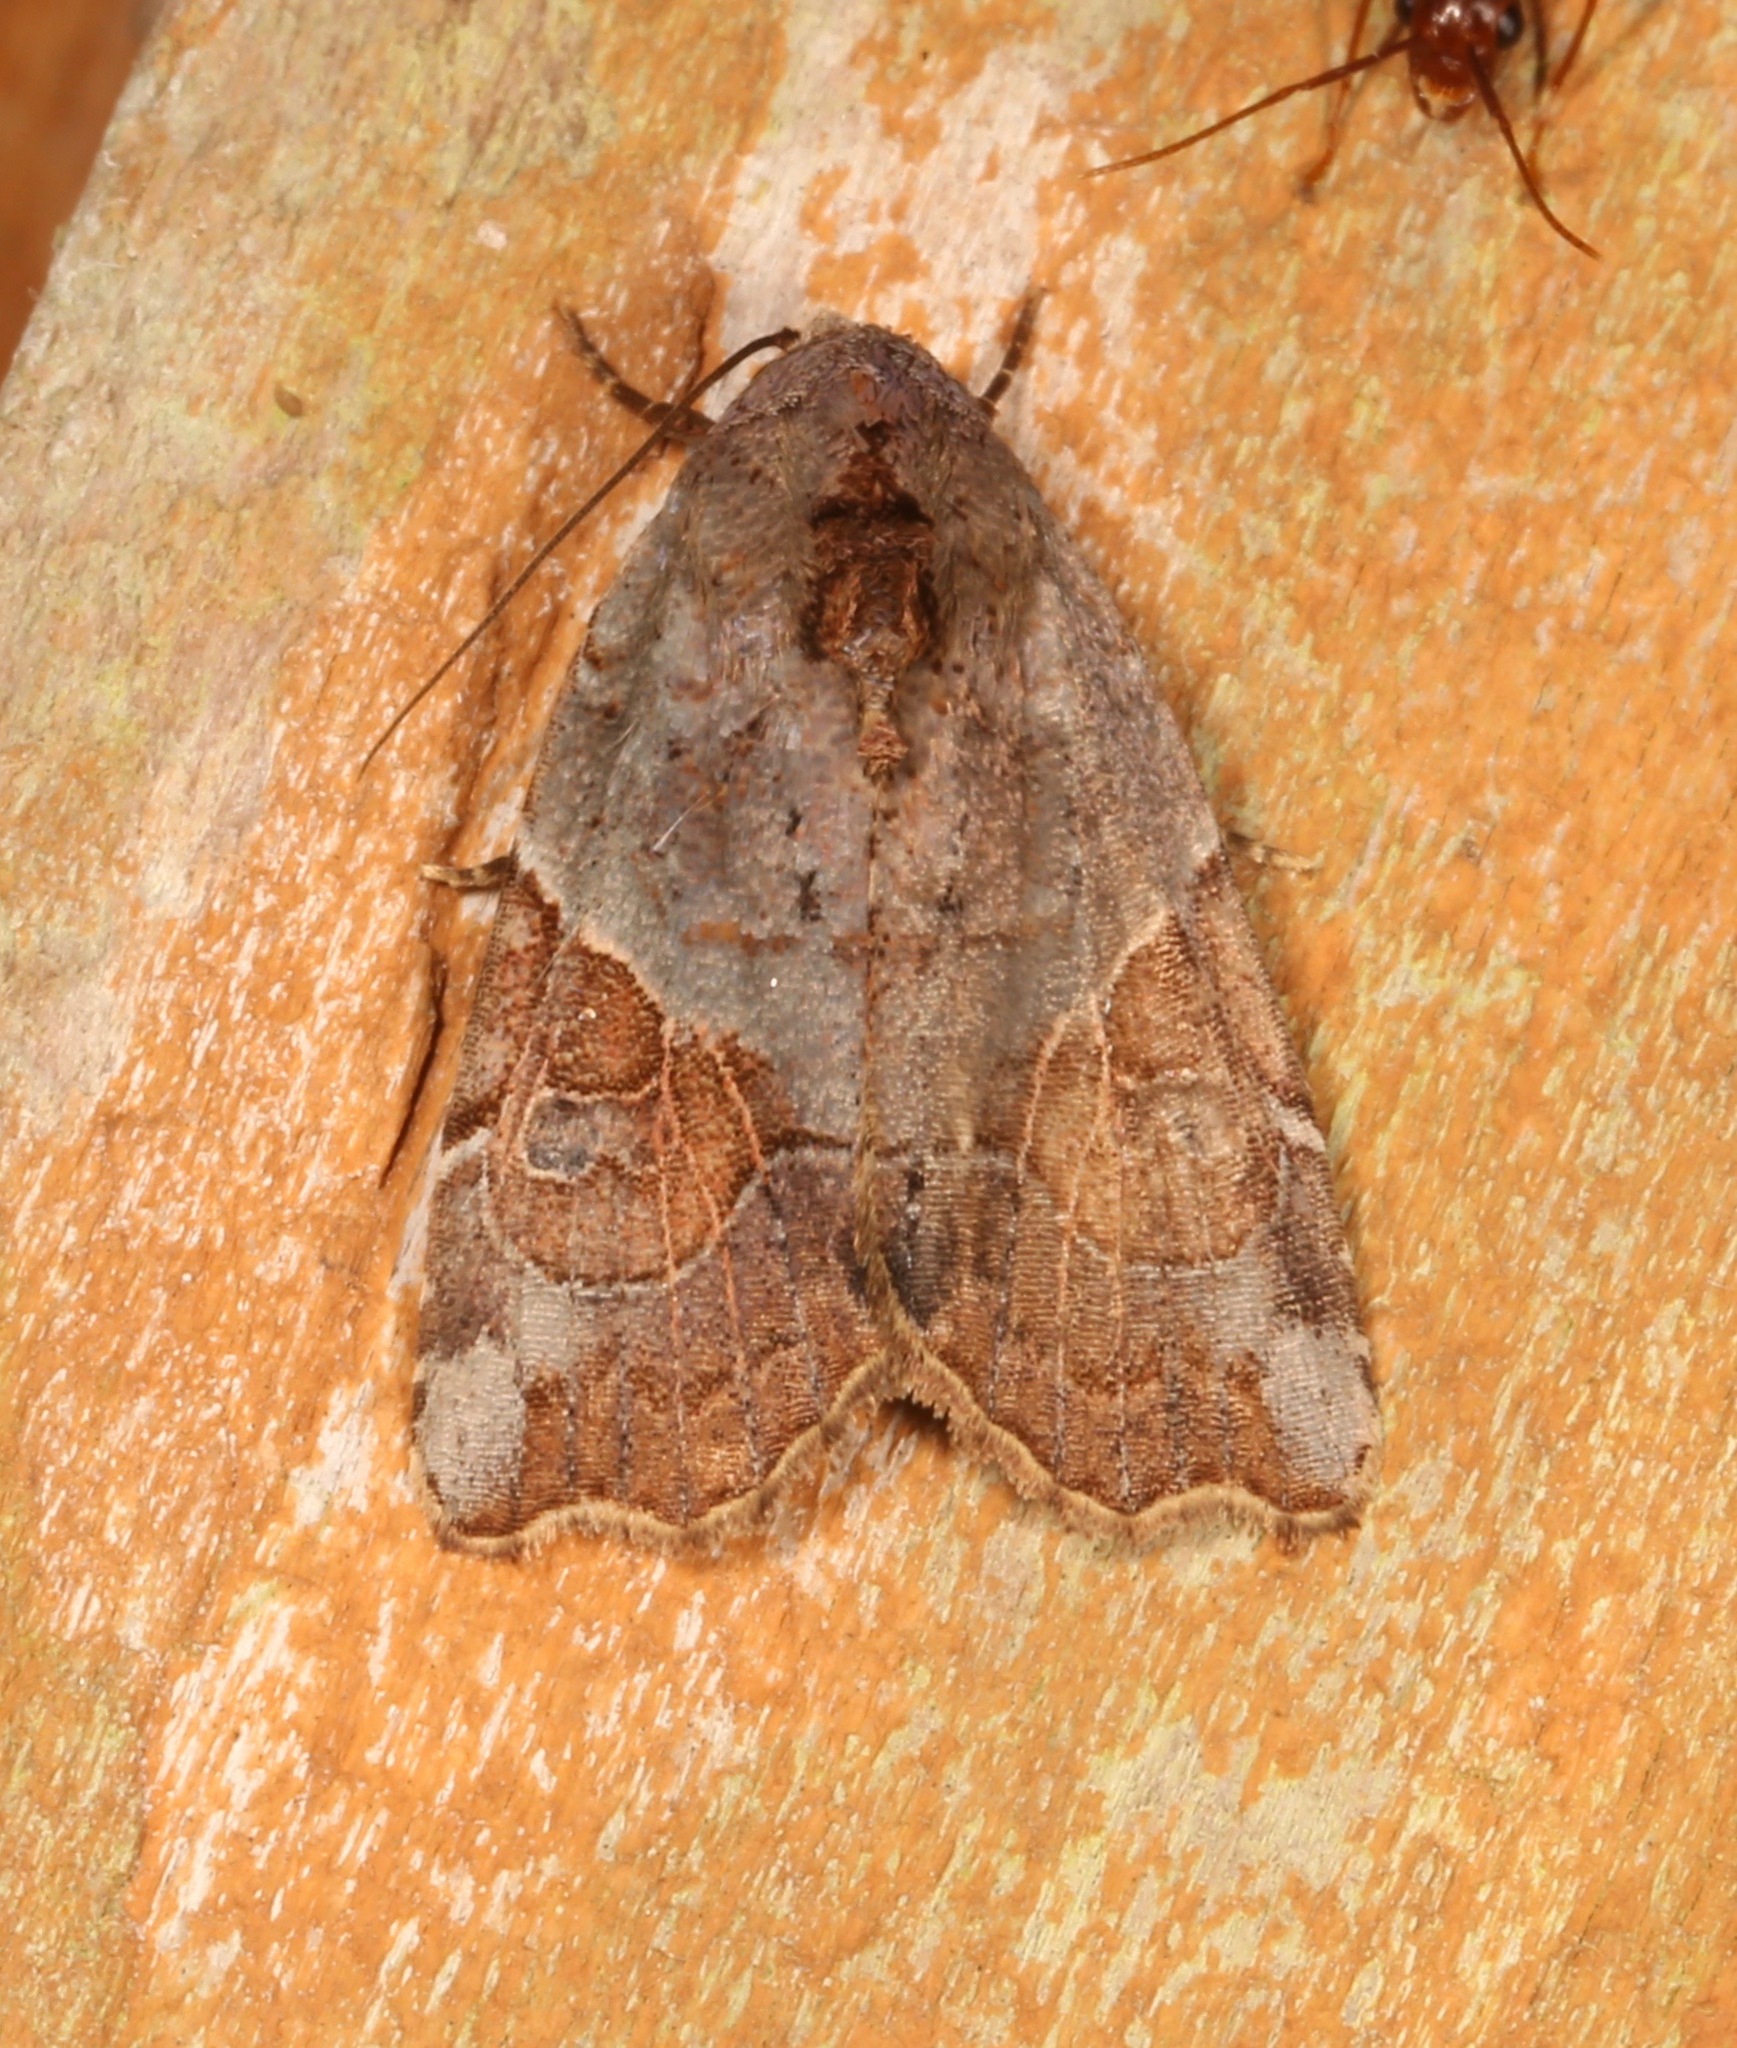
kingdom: Animalia
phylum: Arthropoda
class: Insecta
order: Lepidoptera
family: Noctuidae
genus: Gonodes
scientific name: Gonodes liquida
